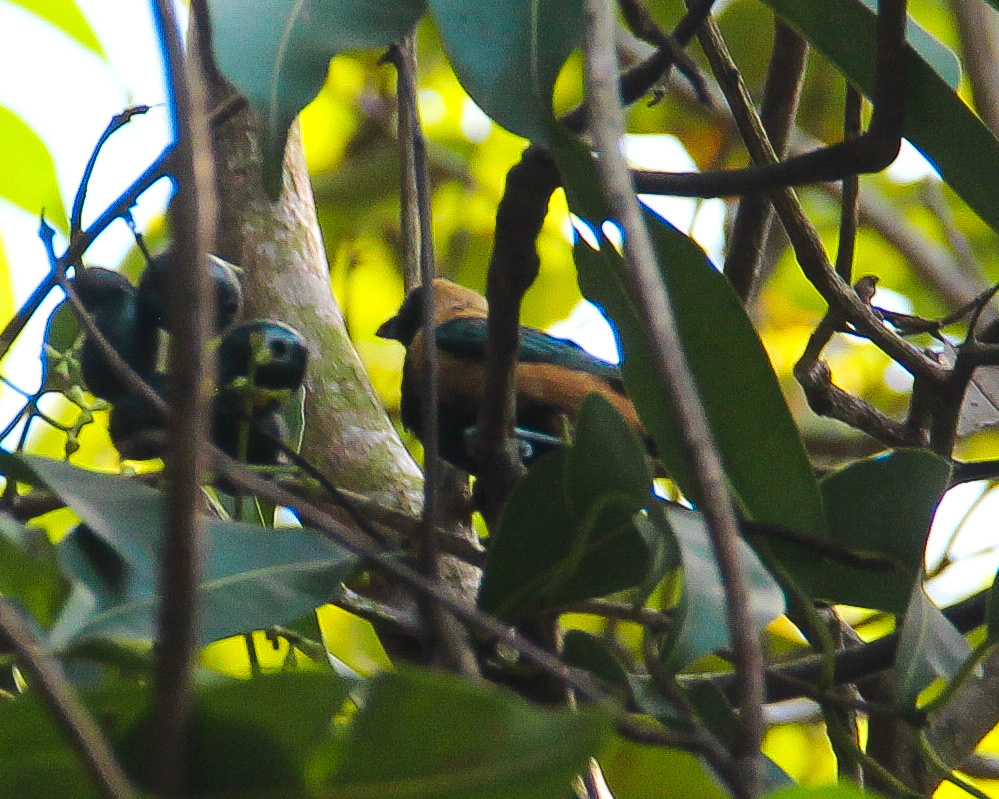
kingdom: Animalia
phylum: Chordata
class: Aves
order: Passeriformes
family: Thraupidae
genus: Stilpnia
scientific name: Stilpnia cayana
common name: Burnished-buff tanager
